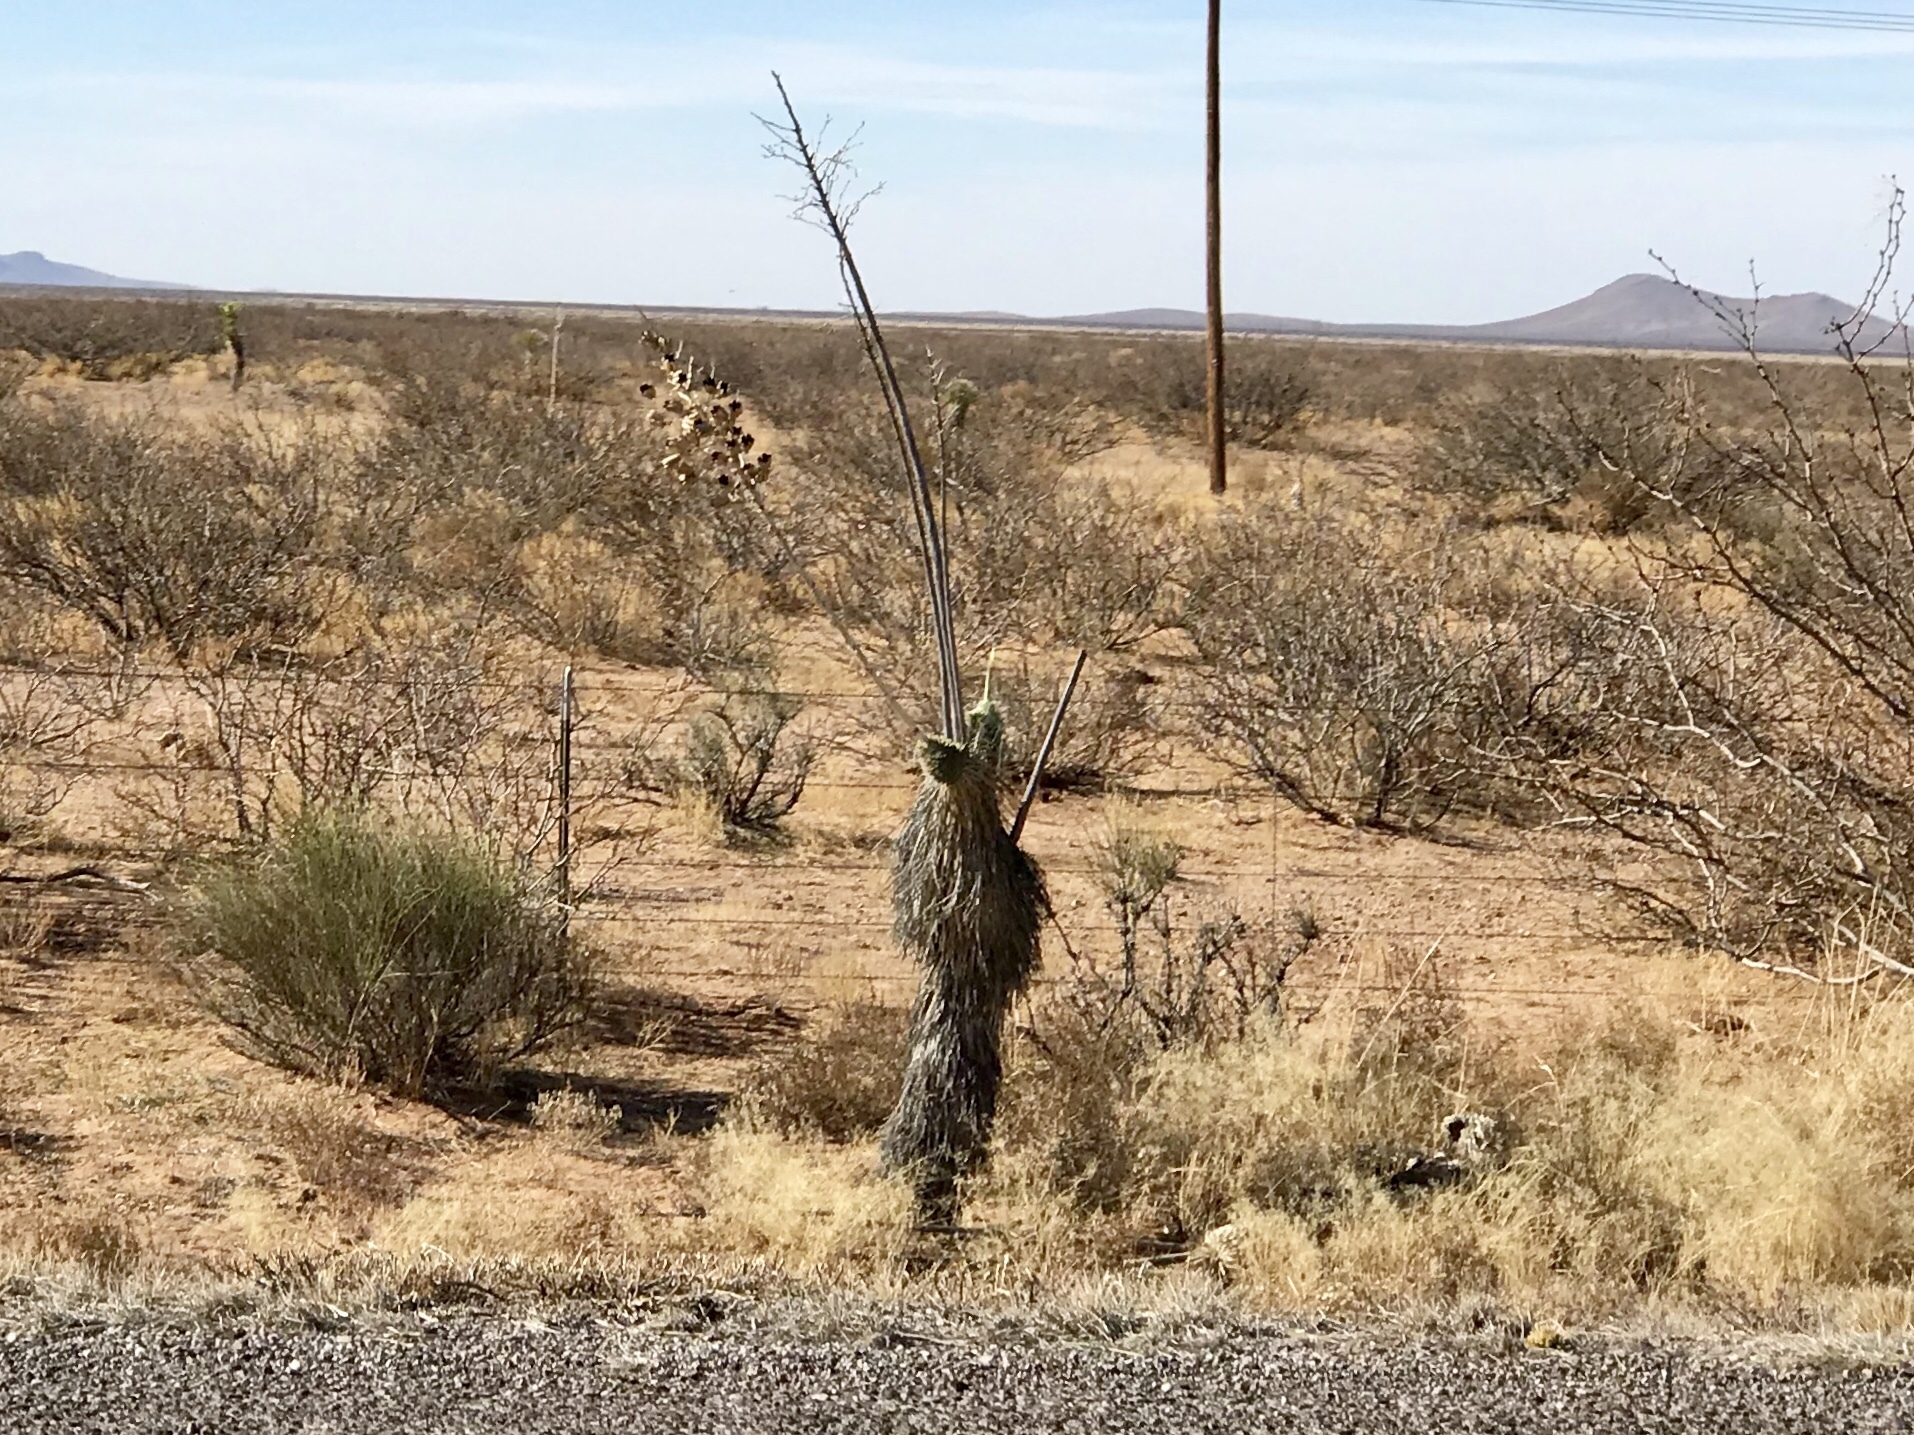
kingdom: Plantae
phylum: Tracheophyta
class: Liliopsida
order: Asparagales
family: Asparagaceae
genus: Yucca
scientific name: Yucca elata
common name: Palmella
